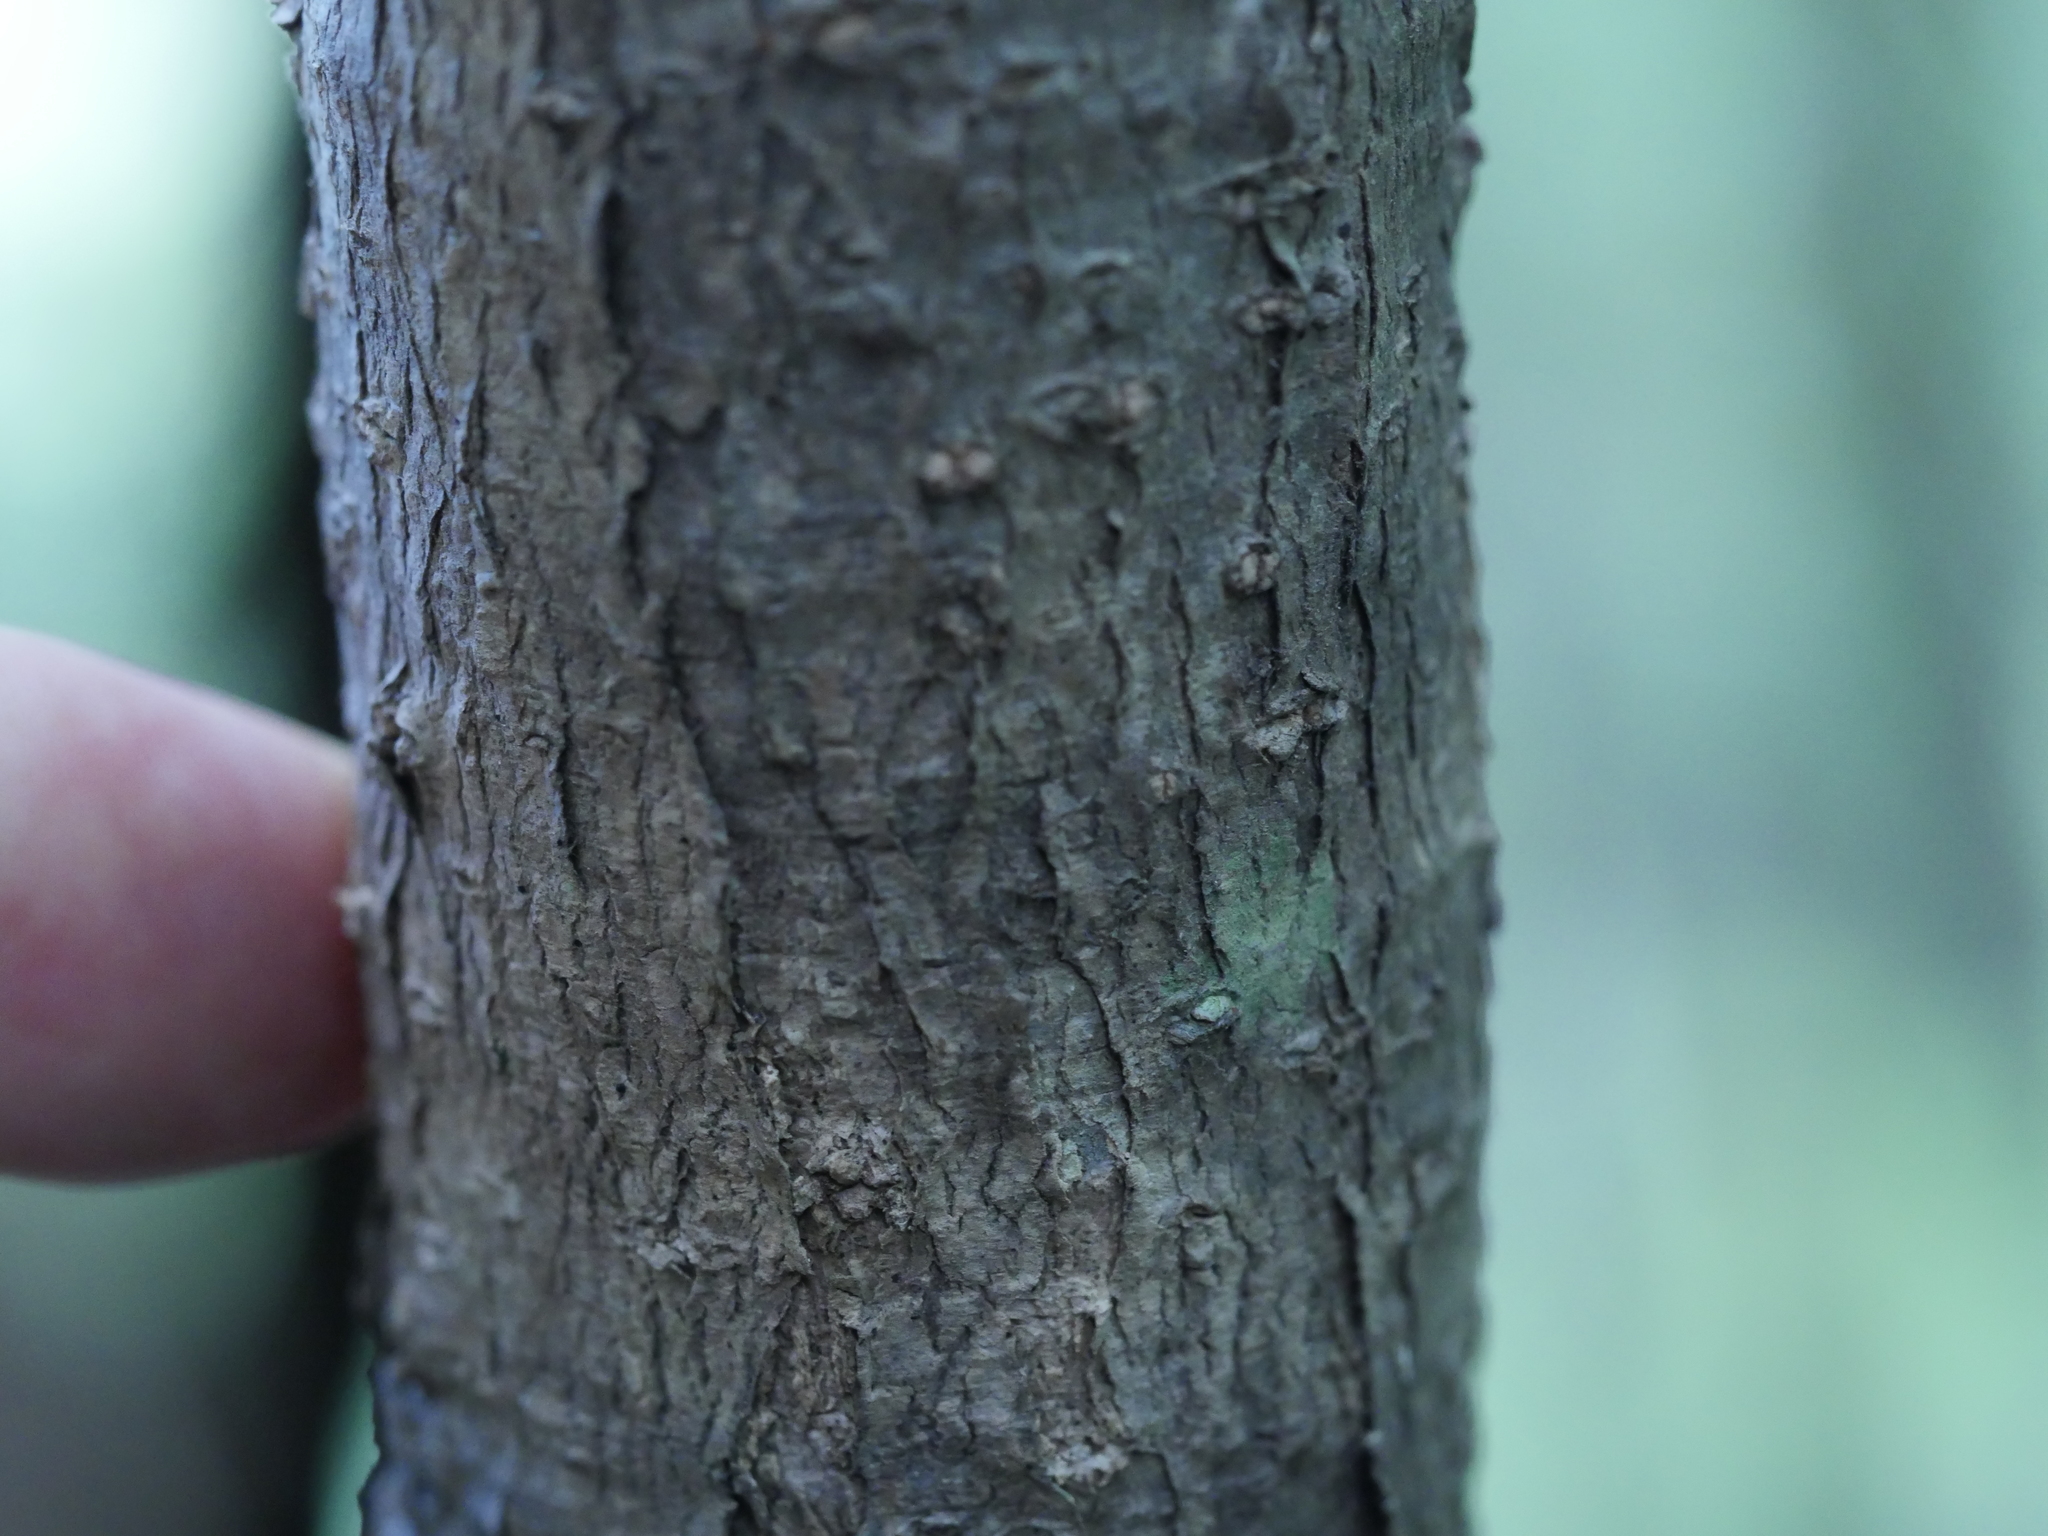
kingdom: Plantae
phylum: Tracheophyta
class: Magnoliopsida
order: Santalales
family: Nanodeaceae
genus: Mida
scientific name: Mida salicifolia
